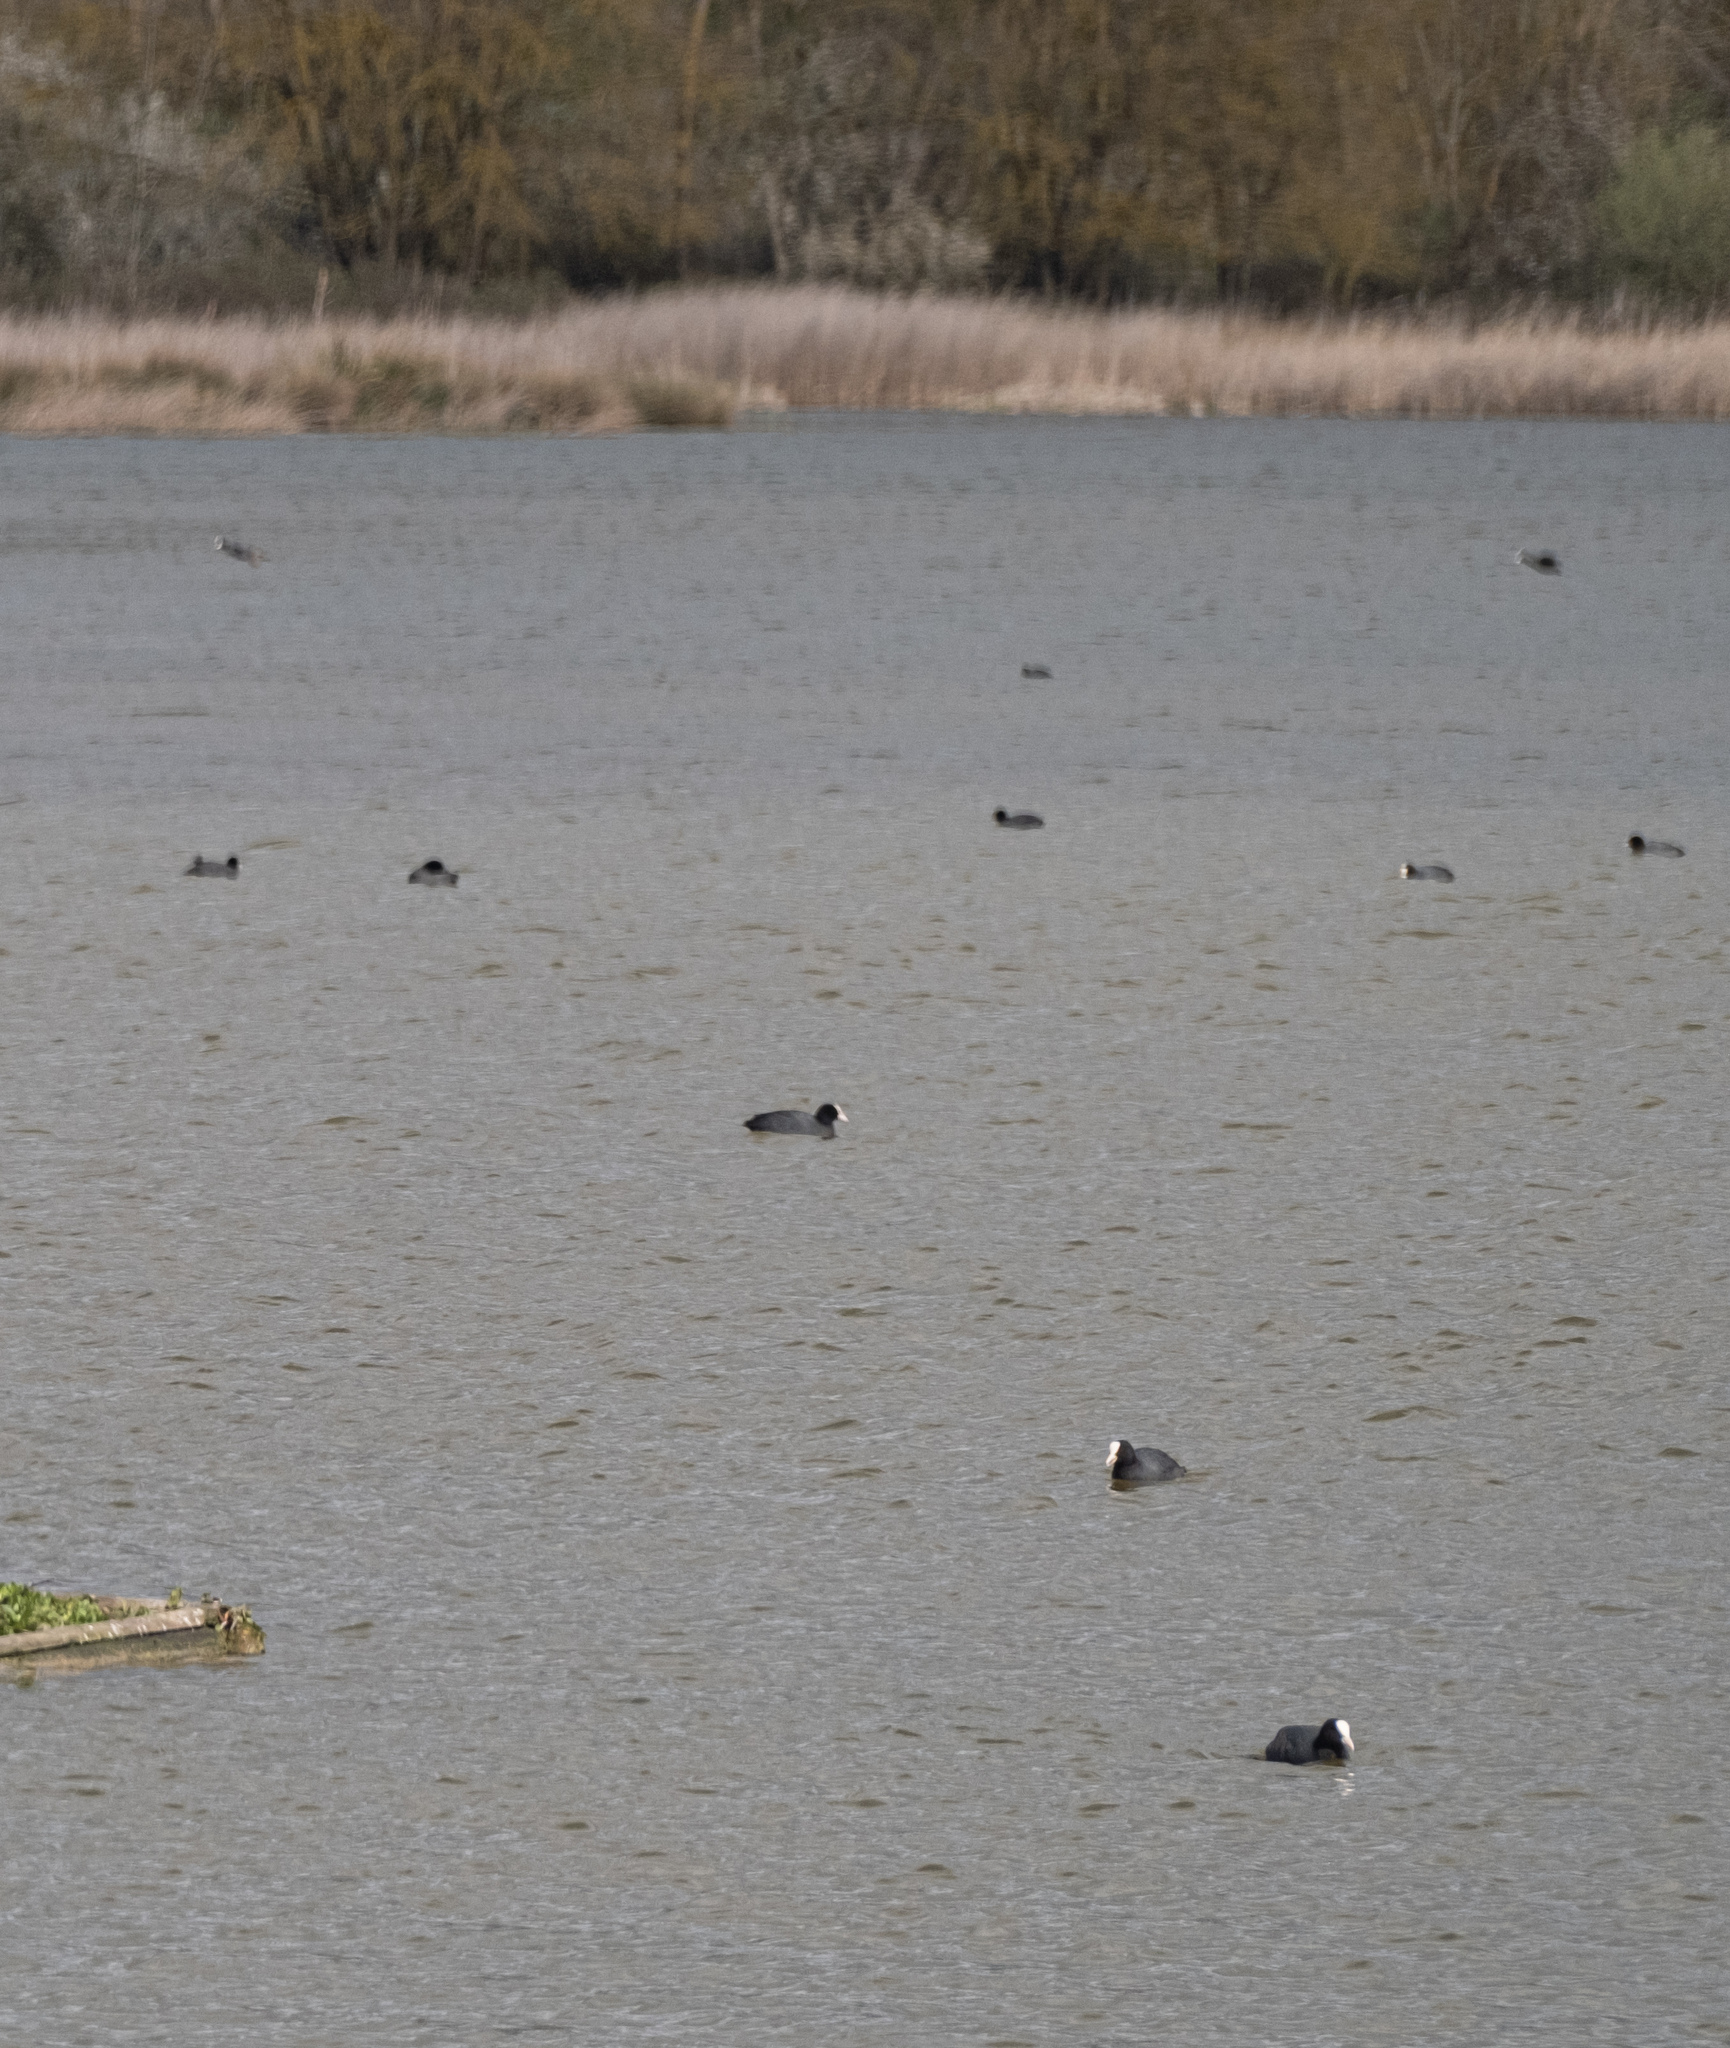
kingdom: Animalia
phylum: Chordata
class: Aves
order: Gruiformes
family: Rallidae
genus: Fulica
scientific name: Fulica atra
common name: Eurasian coot
